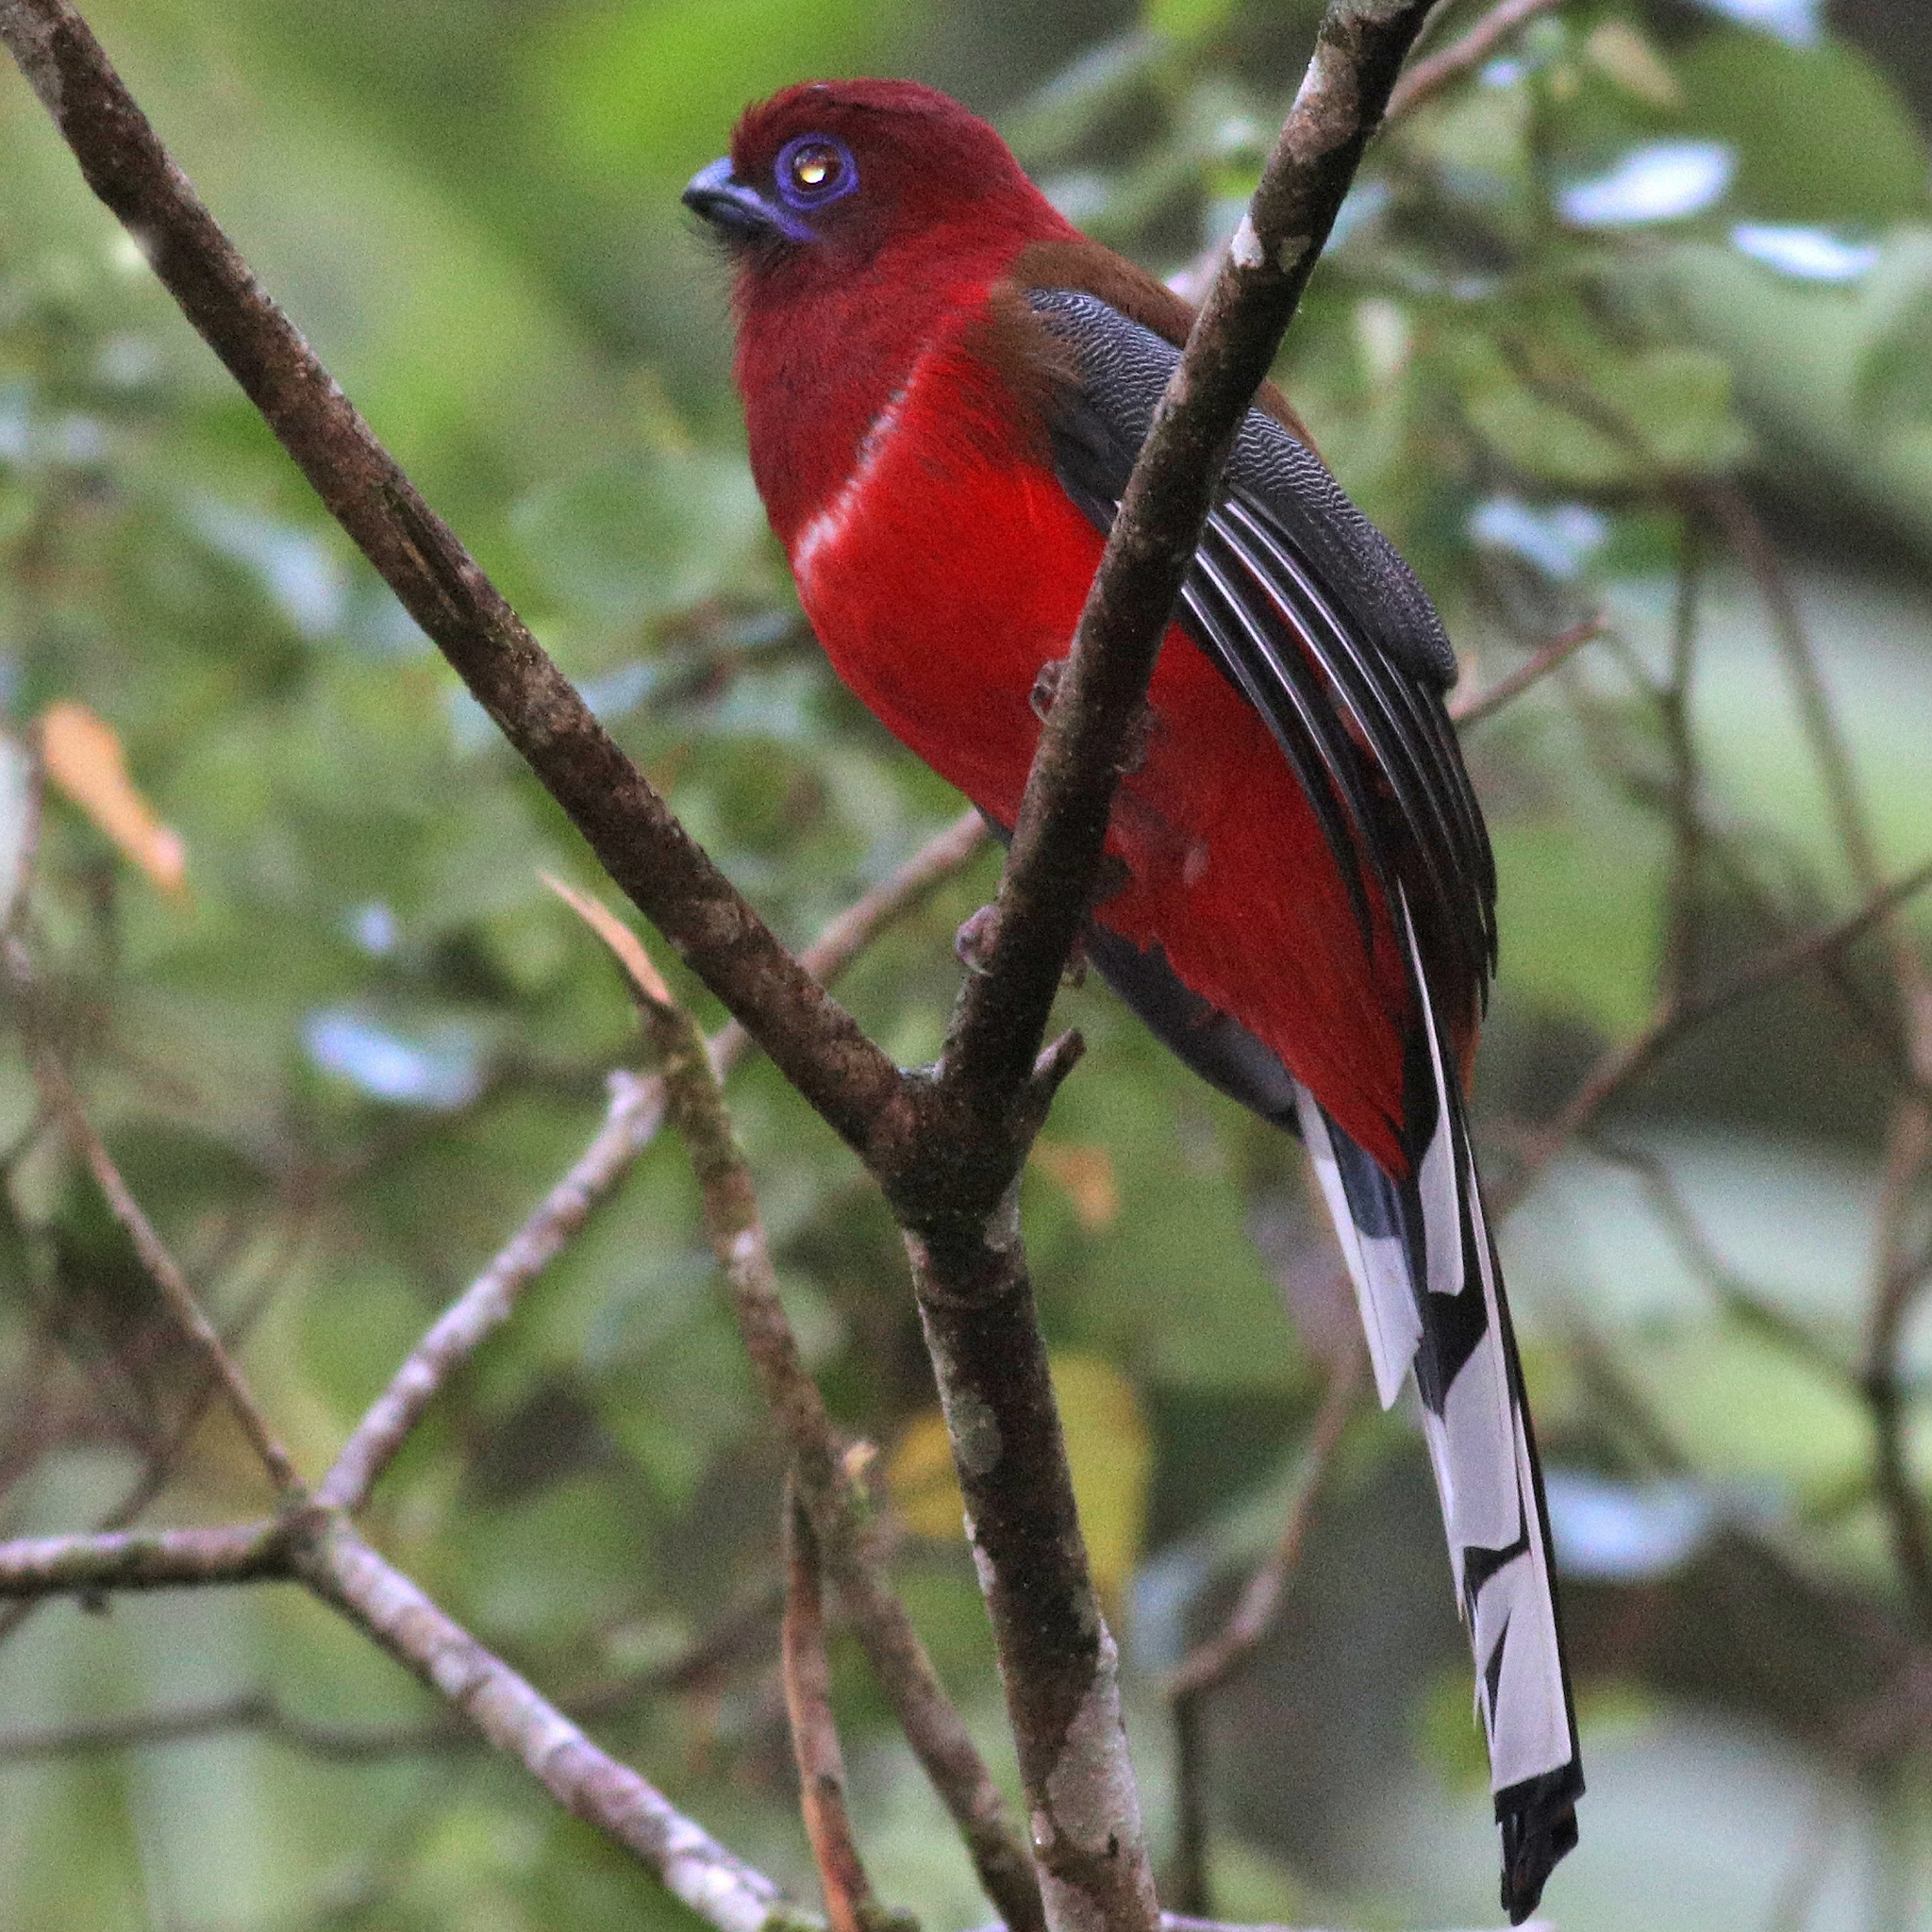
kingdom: Animalia
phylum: Chordata
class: Aves
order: Trogoniformes
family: Trogonidae
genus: Harpactes
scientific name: Harpactes erythrocephalus
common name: Red-headed trogon
